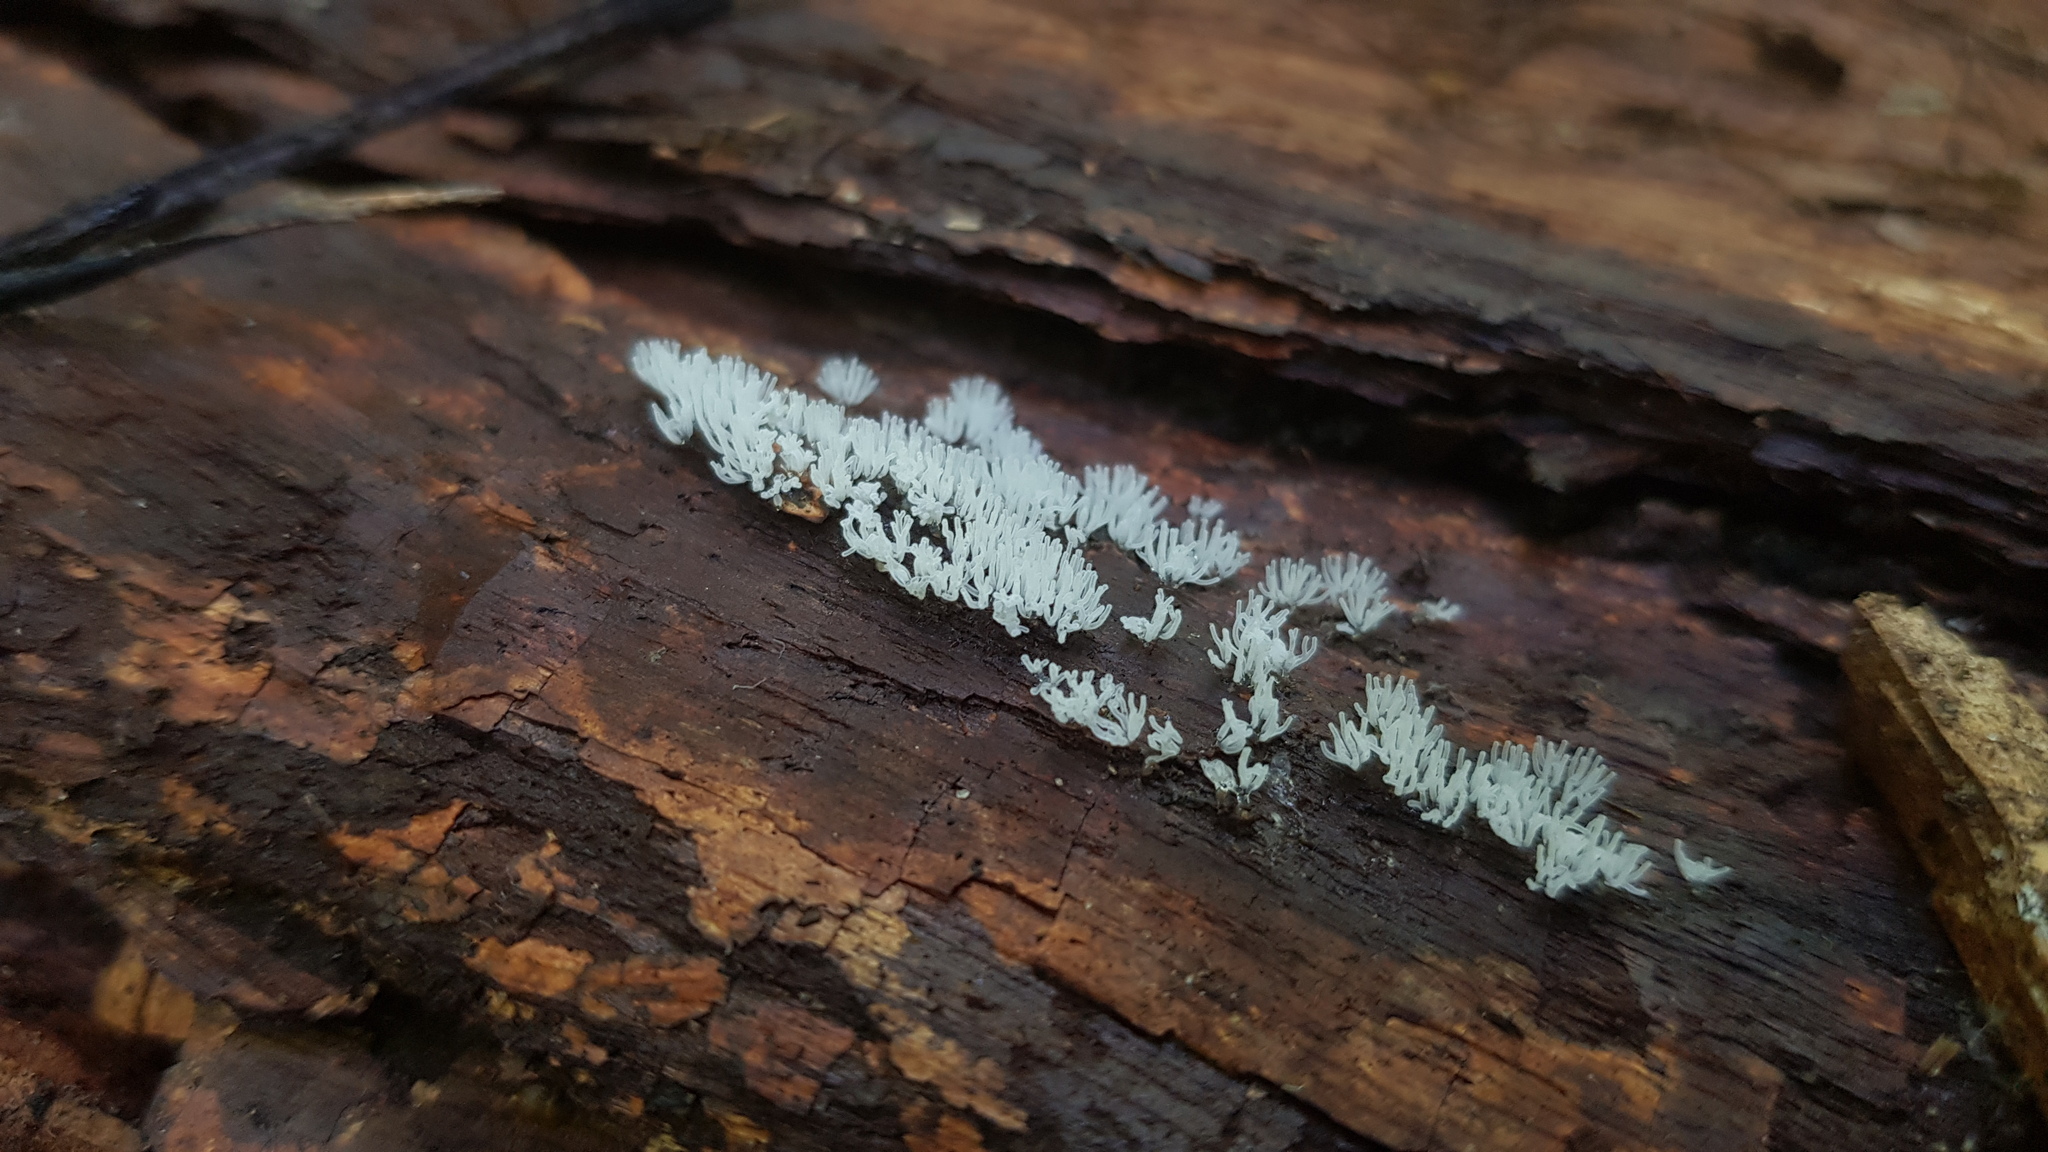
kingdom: Protozoa
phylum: Mycetozoa
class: Protosteliomycetes
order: Ceratiomyxales
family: Ceratiomyxaceae
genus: Ceratiomyxa
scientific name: Ceratiomyxa fruticulosa
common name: Honeycomb coral slime mold
